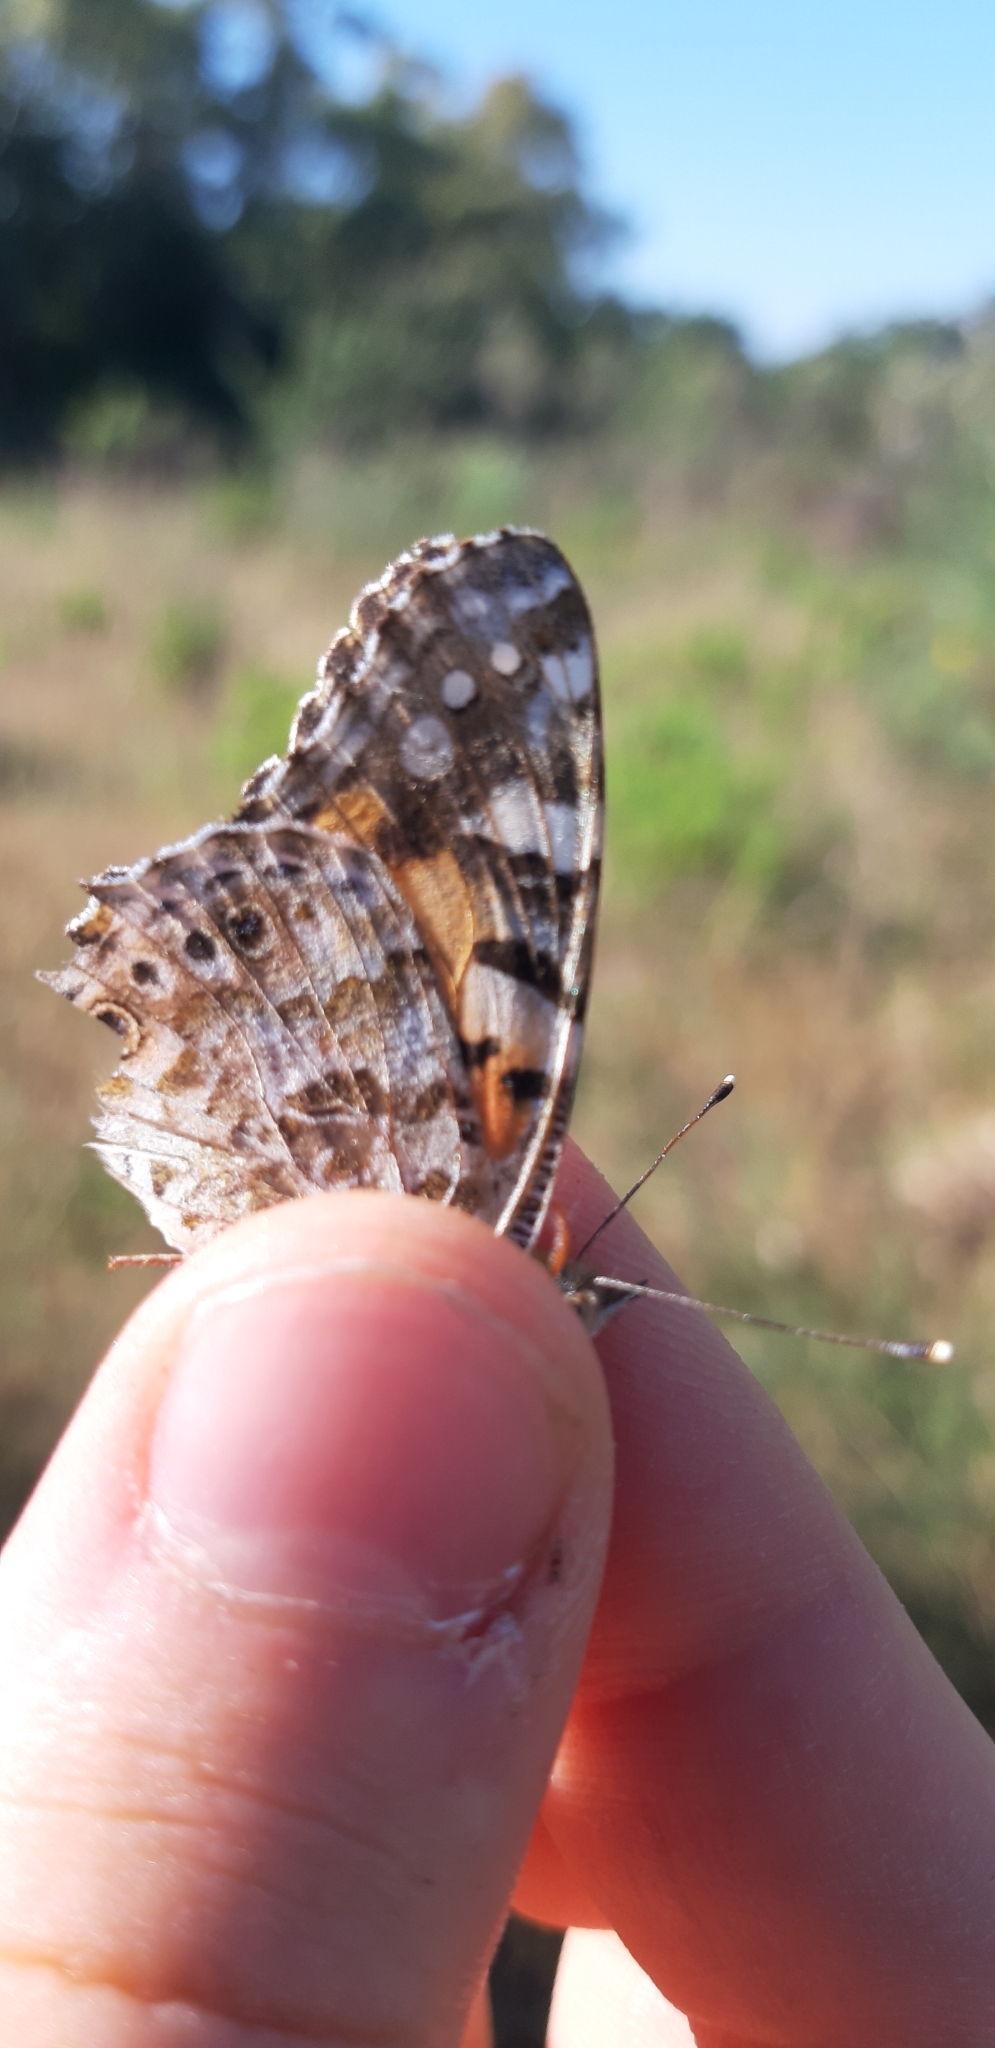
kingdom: Animalia
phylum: Arthropoda
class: Insecta
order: Lepidoptera
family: Nymphalidae
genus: Vanessa
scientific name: Vanessa cardui
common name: Painted lady
